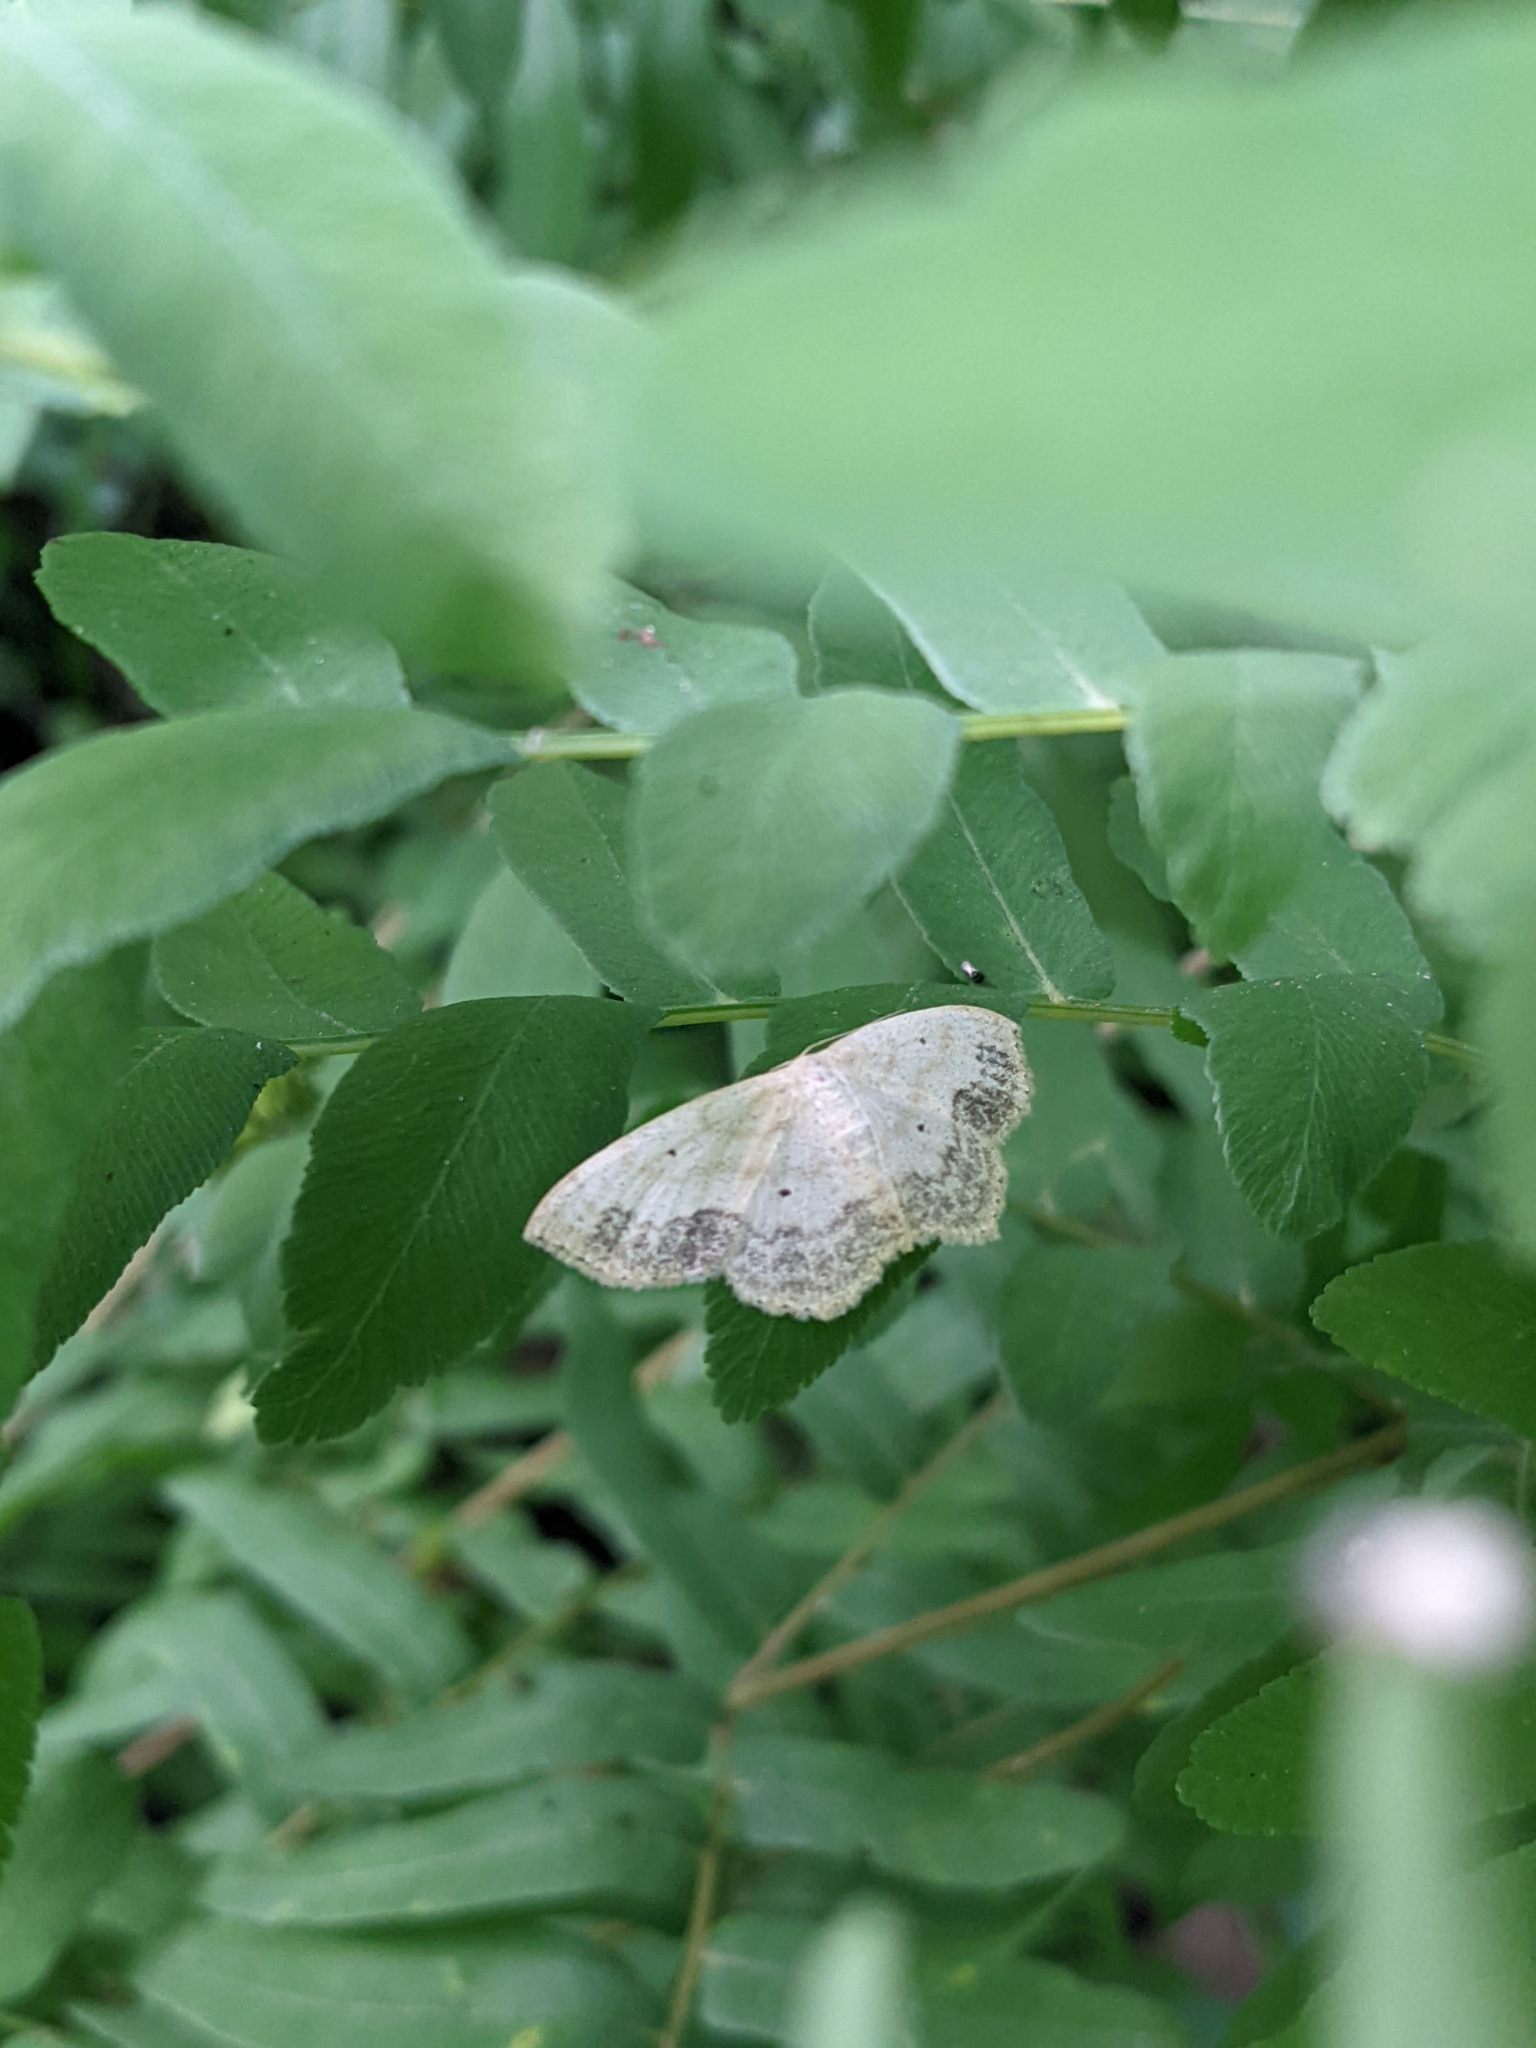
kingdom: Animalia
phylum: Arthropoda
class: Insecta
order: Lepidoptera
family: Geometridae
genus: Scopula
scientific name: Scopula limboundata
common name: Large lace border
